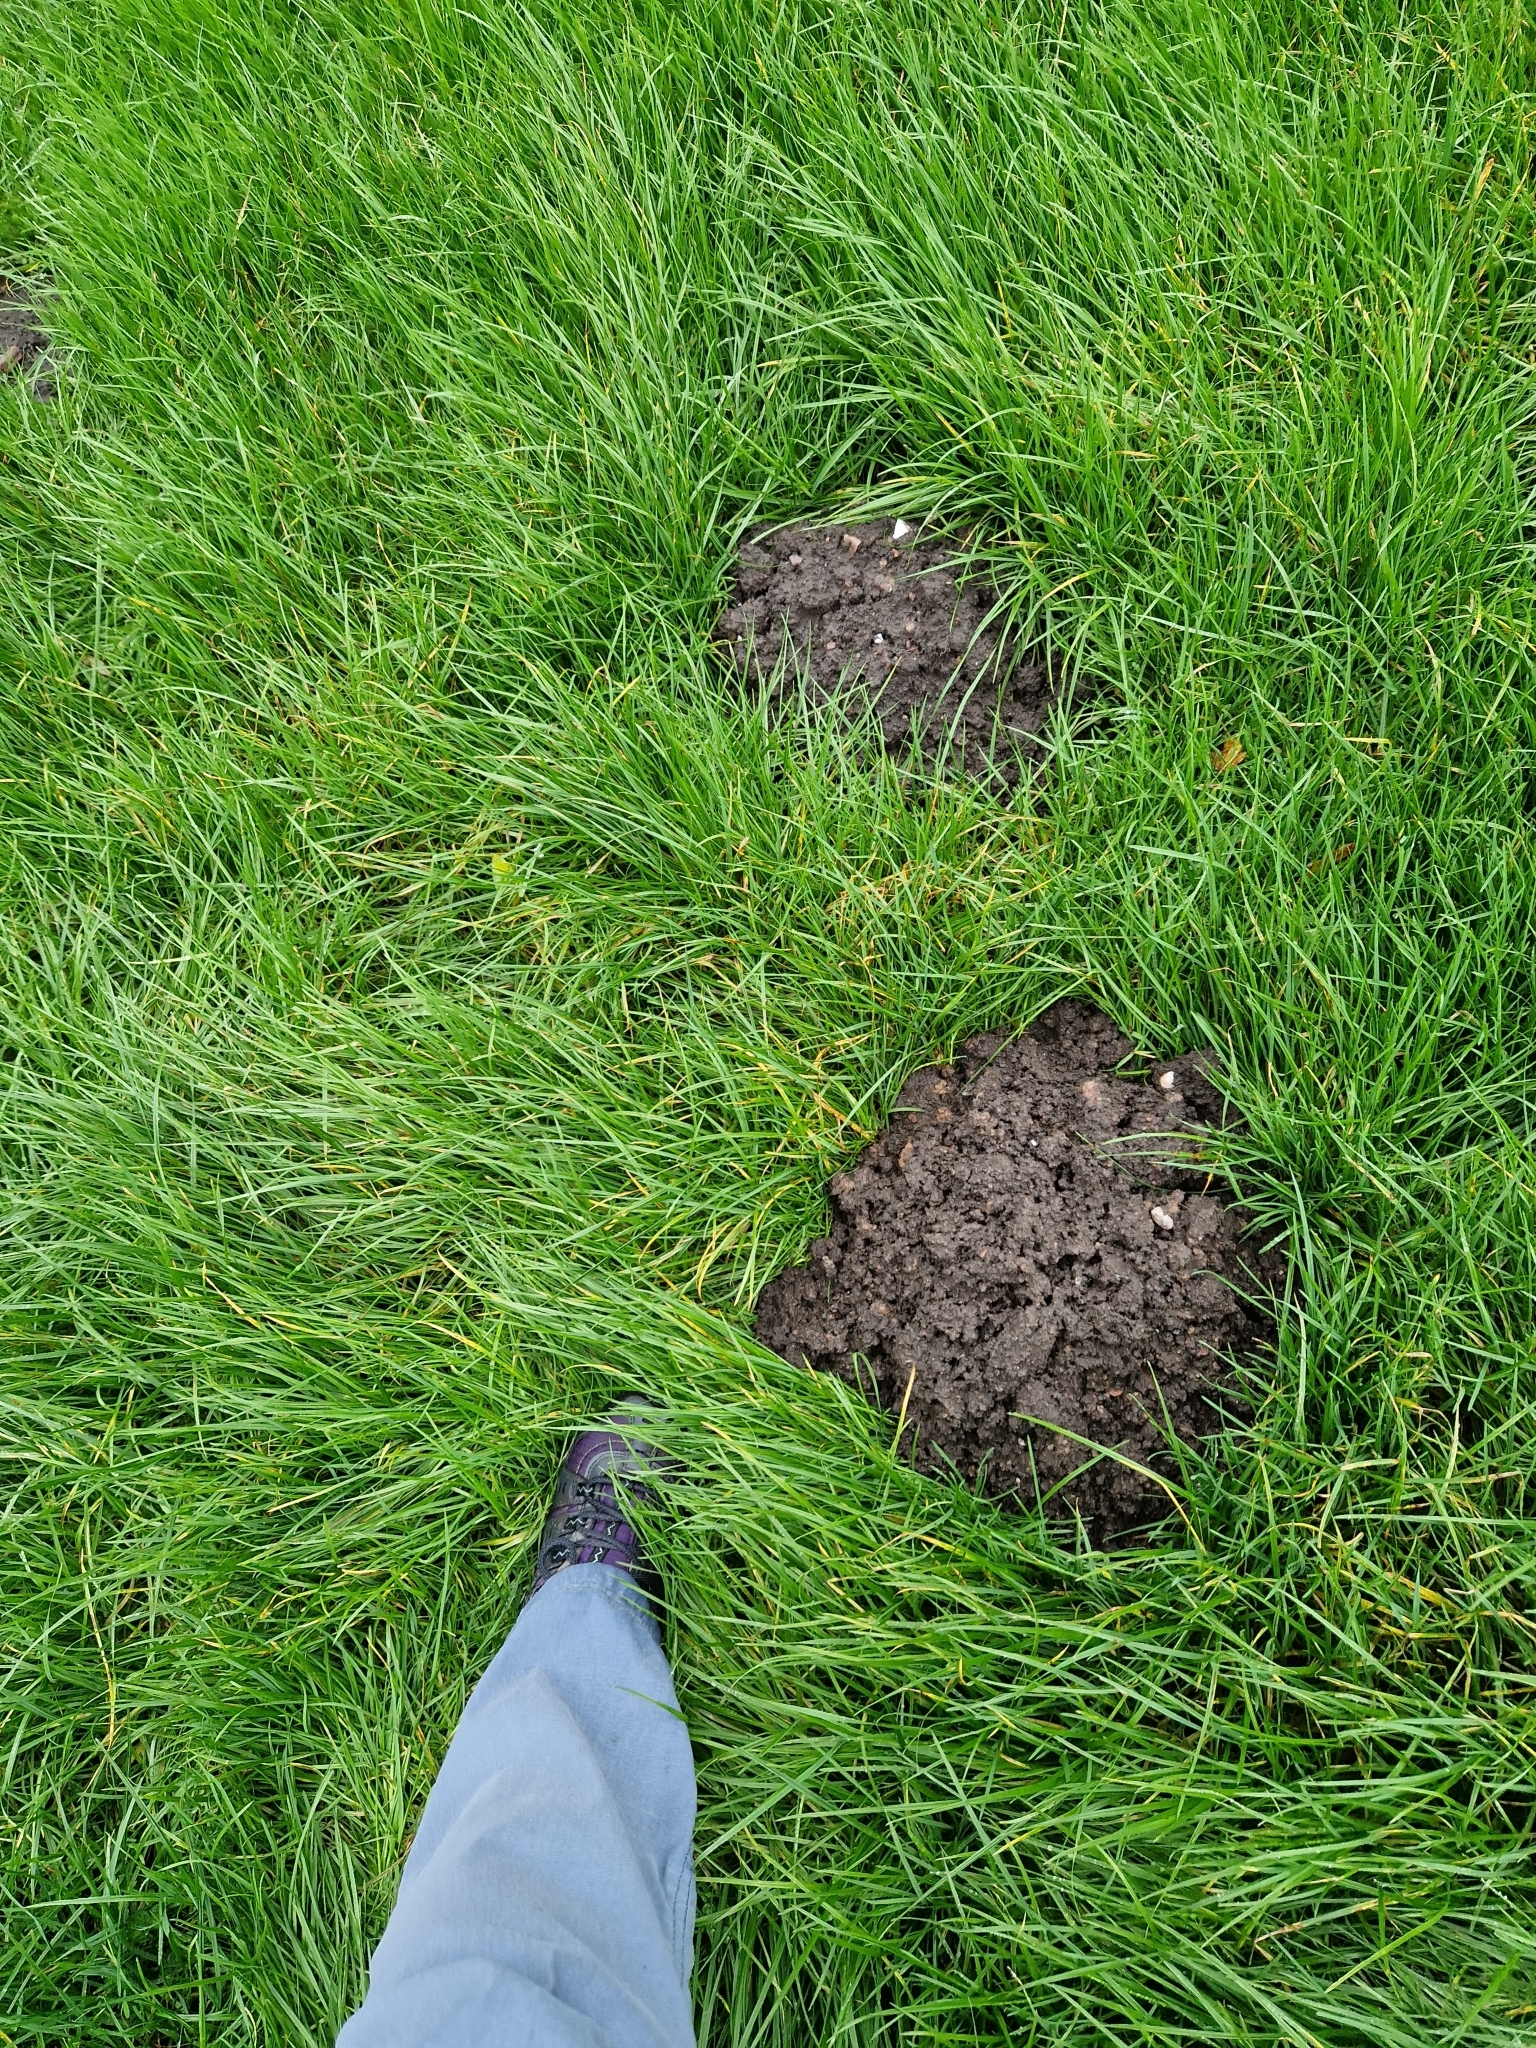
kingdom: Animalia
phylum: Chordata
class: Mammalia
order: Soricomorpha
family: Talpidae
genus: Talpa
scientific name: Talpa europaea
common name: European mole
